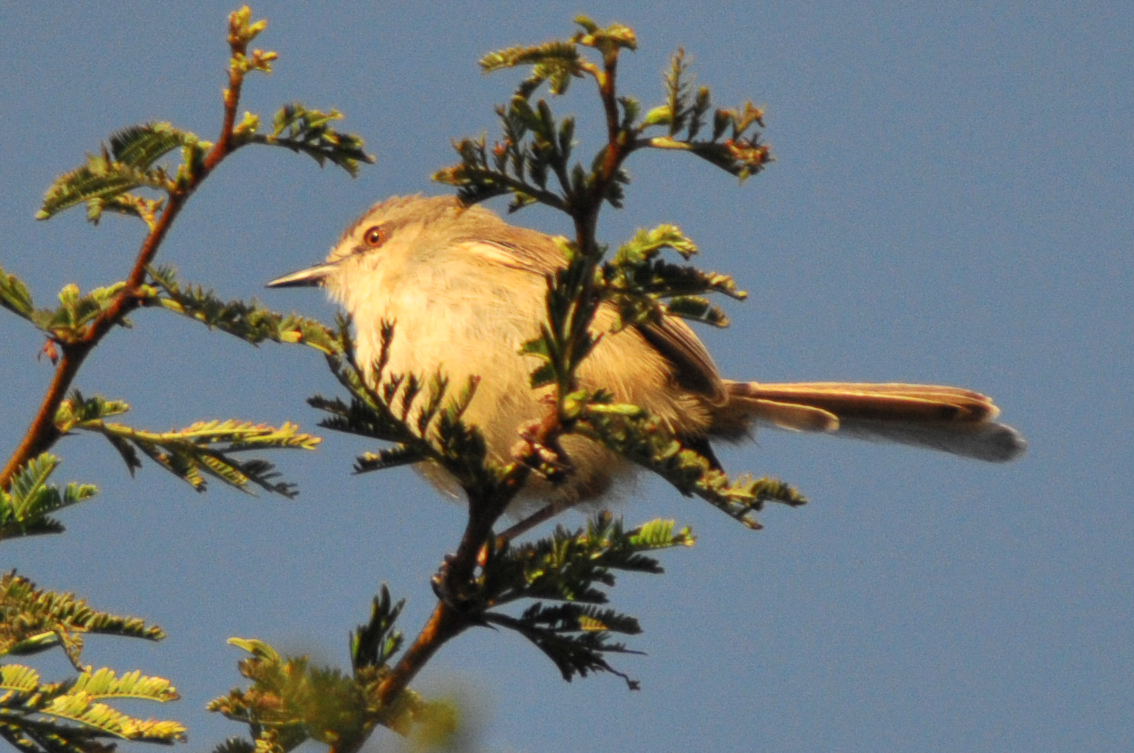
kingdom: Animalia
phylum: Chordata
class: Aves
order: Passeriformes
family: Cisticolidae
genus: Prinia
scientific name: Prinia subflava
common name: Tawny-flanked prinia
